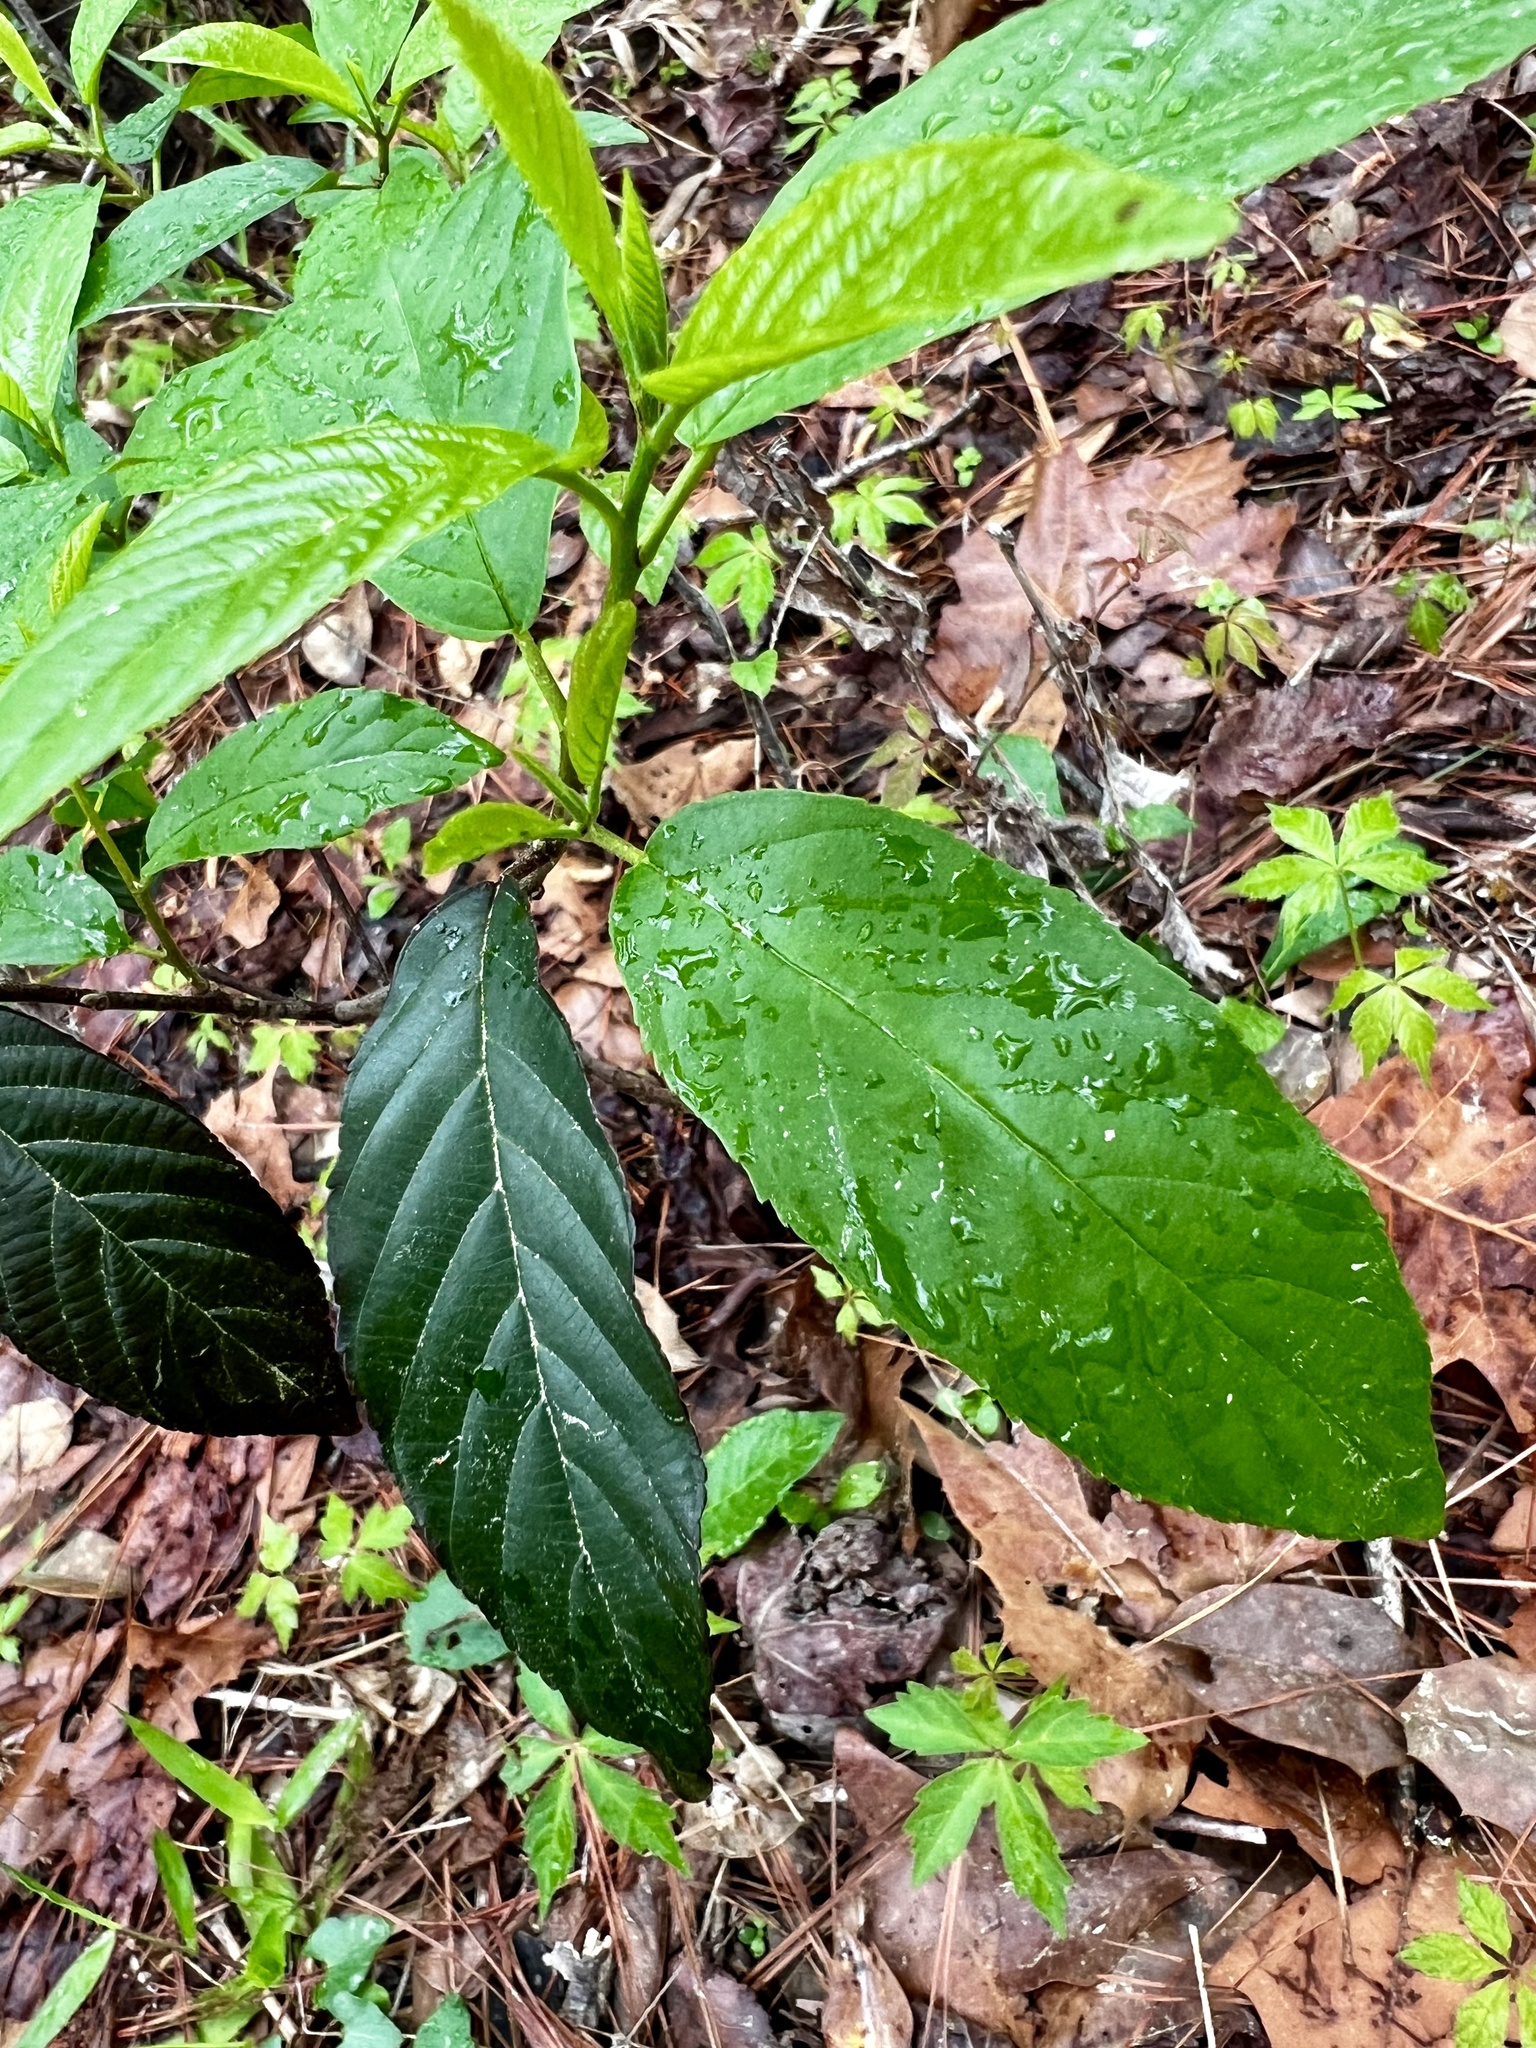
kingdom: Plantae
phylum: Tracheophyta
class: Magnoliopsida
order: Rosales
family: Rhamnaceae
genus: Frangula
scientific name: Frangula caroliniana
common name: Carolina buckthorn
